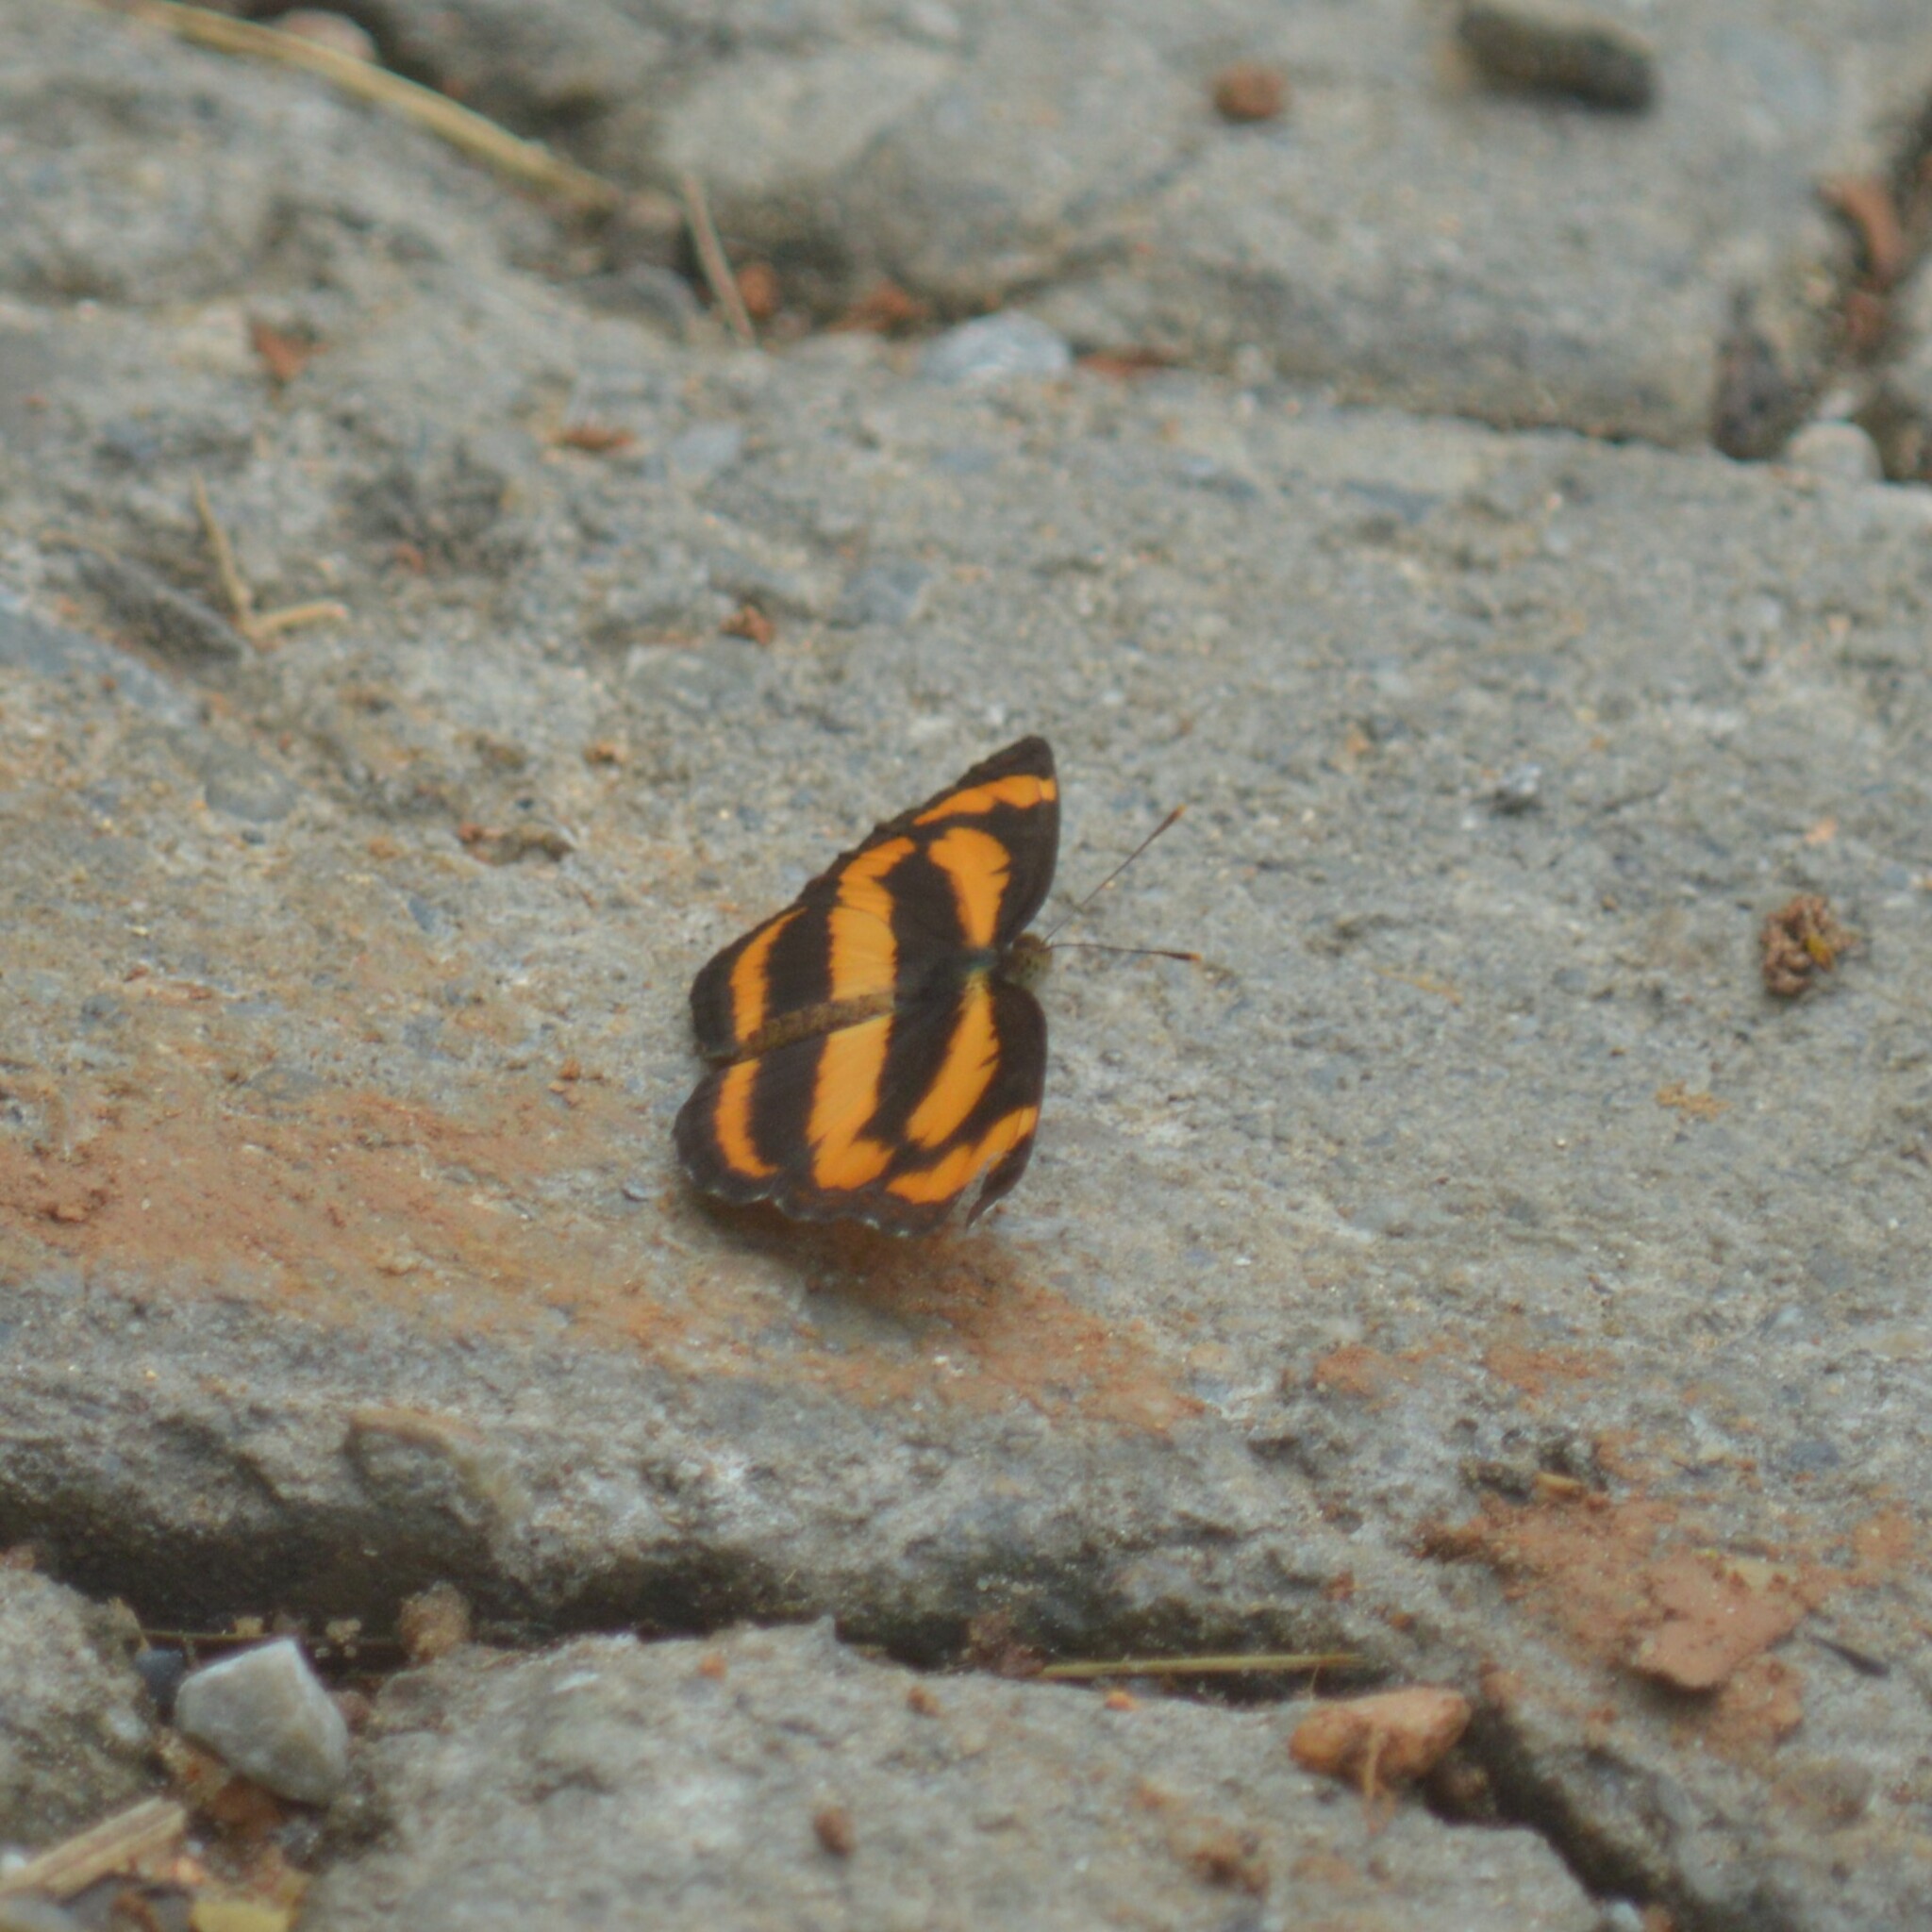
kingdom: Animalia
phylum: Arthropoda
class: Insecta
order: Lepidoptera
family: Nymphalidae
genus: Pantoporia
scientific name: Pantoporia hordonia
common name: Common lascar
